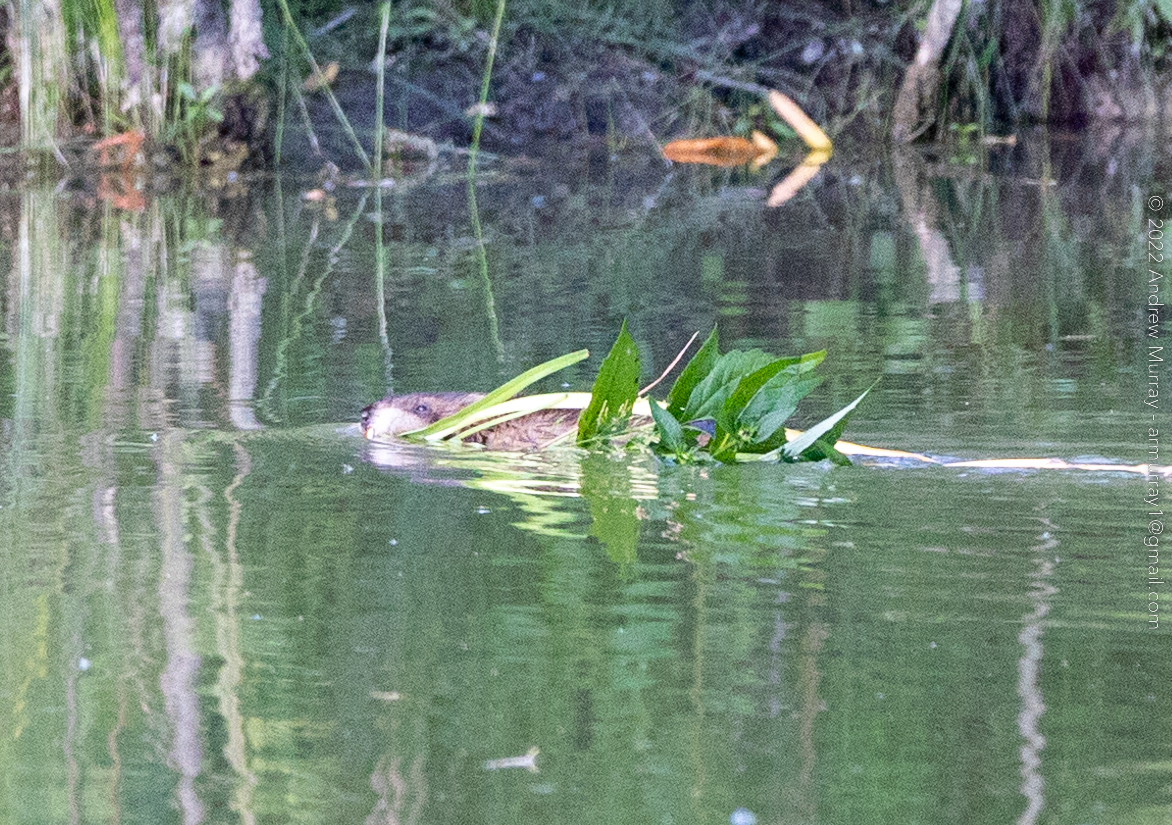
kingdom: Animalia
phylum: Chordata
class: Mammalia
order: Rodentia
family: Cricetidae
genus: Ondatra
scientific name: Ondatra zibethicus
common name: Muskrat
